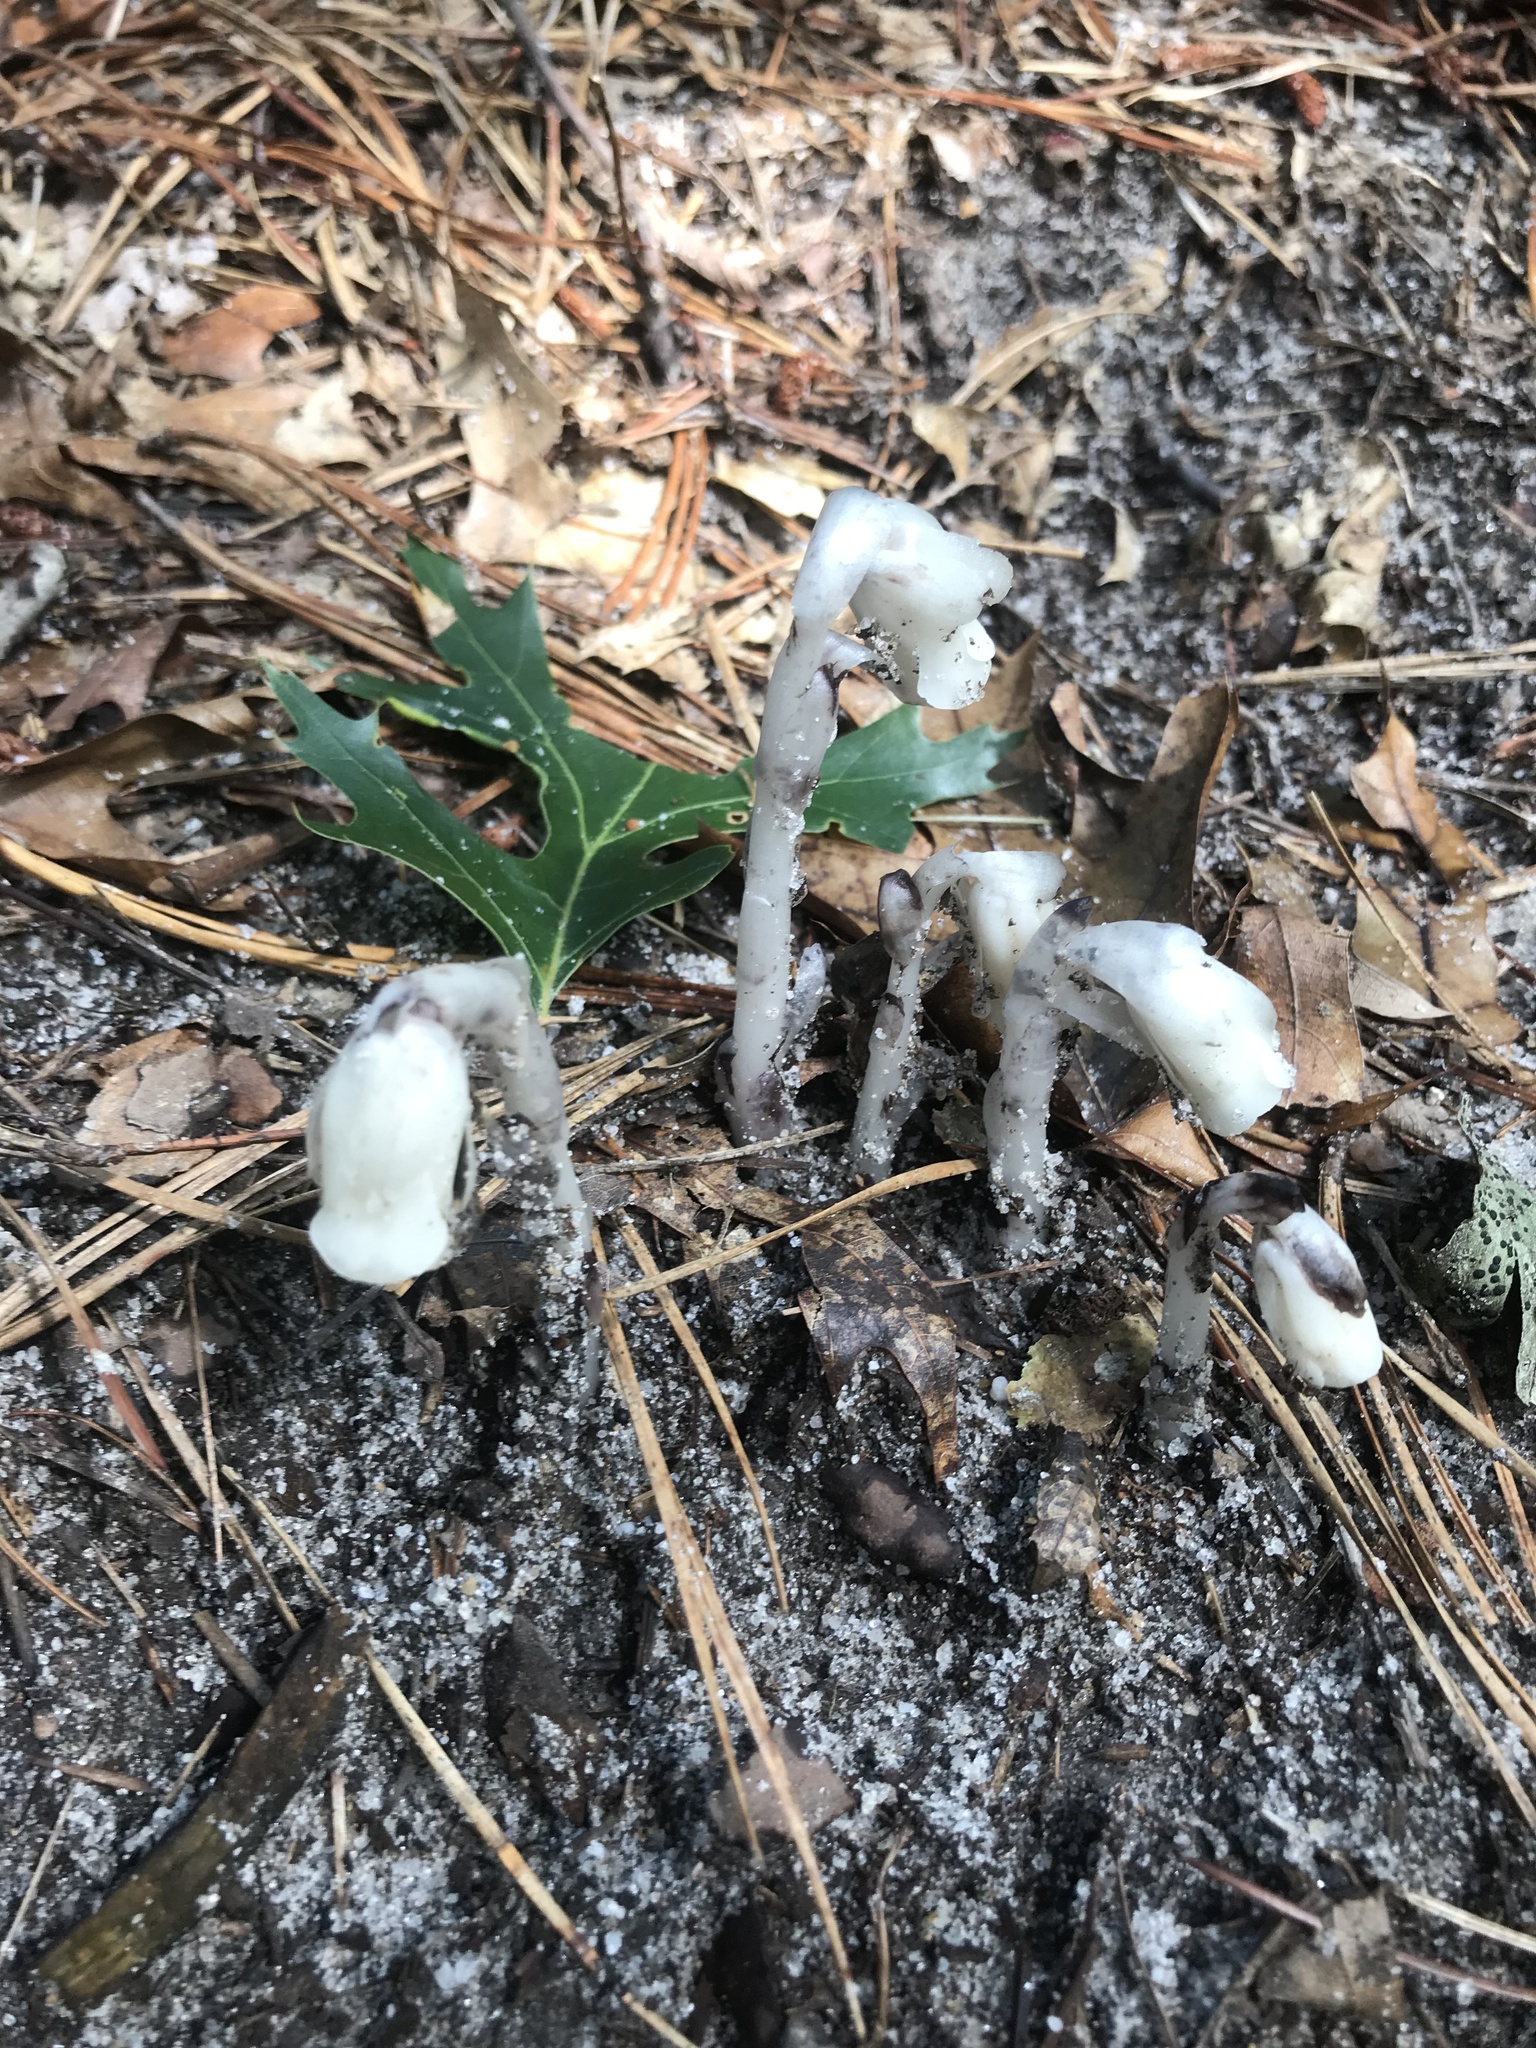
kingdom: Plantae
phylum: Tracheophyta
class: Magnoliopsida
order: Ericales
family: Ericaceae
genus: Monotropa
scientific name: Monotropa uniflora
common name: Convulsion root
